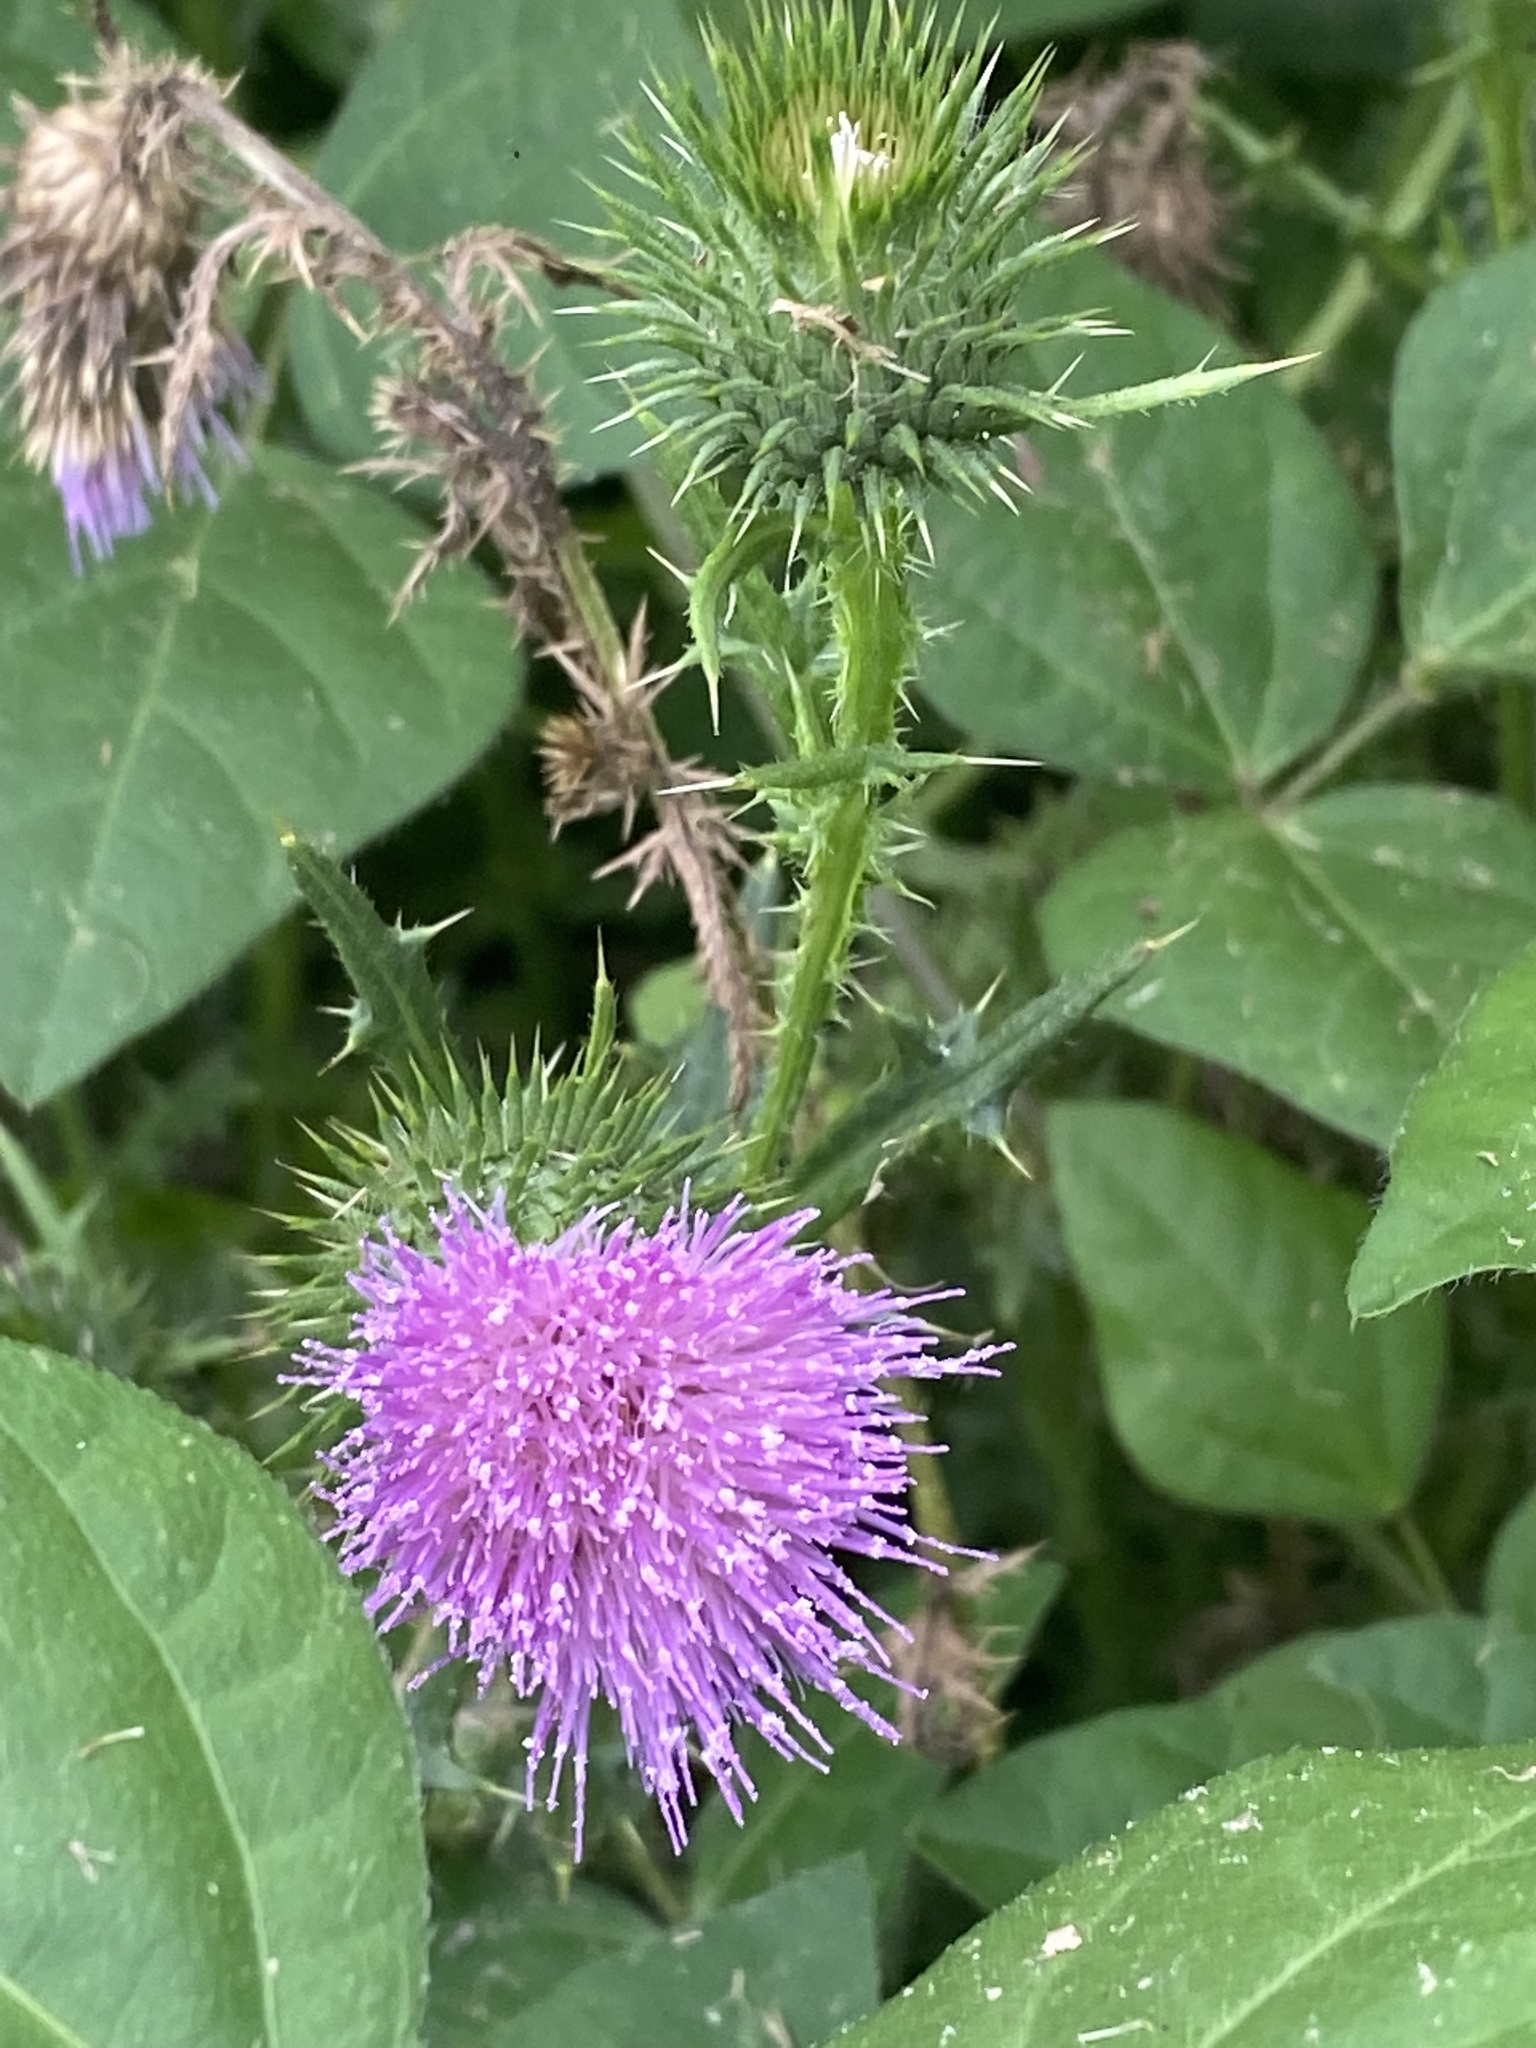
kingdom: Plantae
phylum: Tracheophyta
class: Magnoliopsida
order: Asterales
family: Asteraceae
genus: Cirsium
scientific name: Cirsium vulgare
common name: Bull thistle
